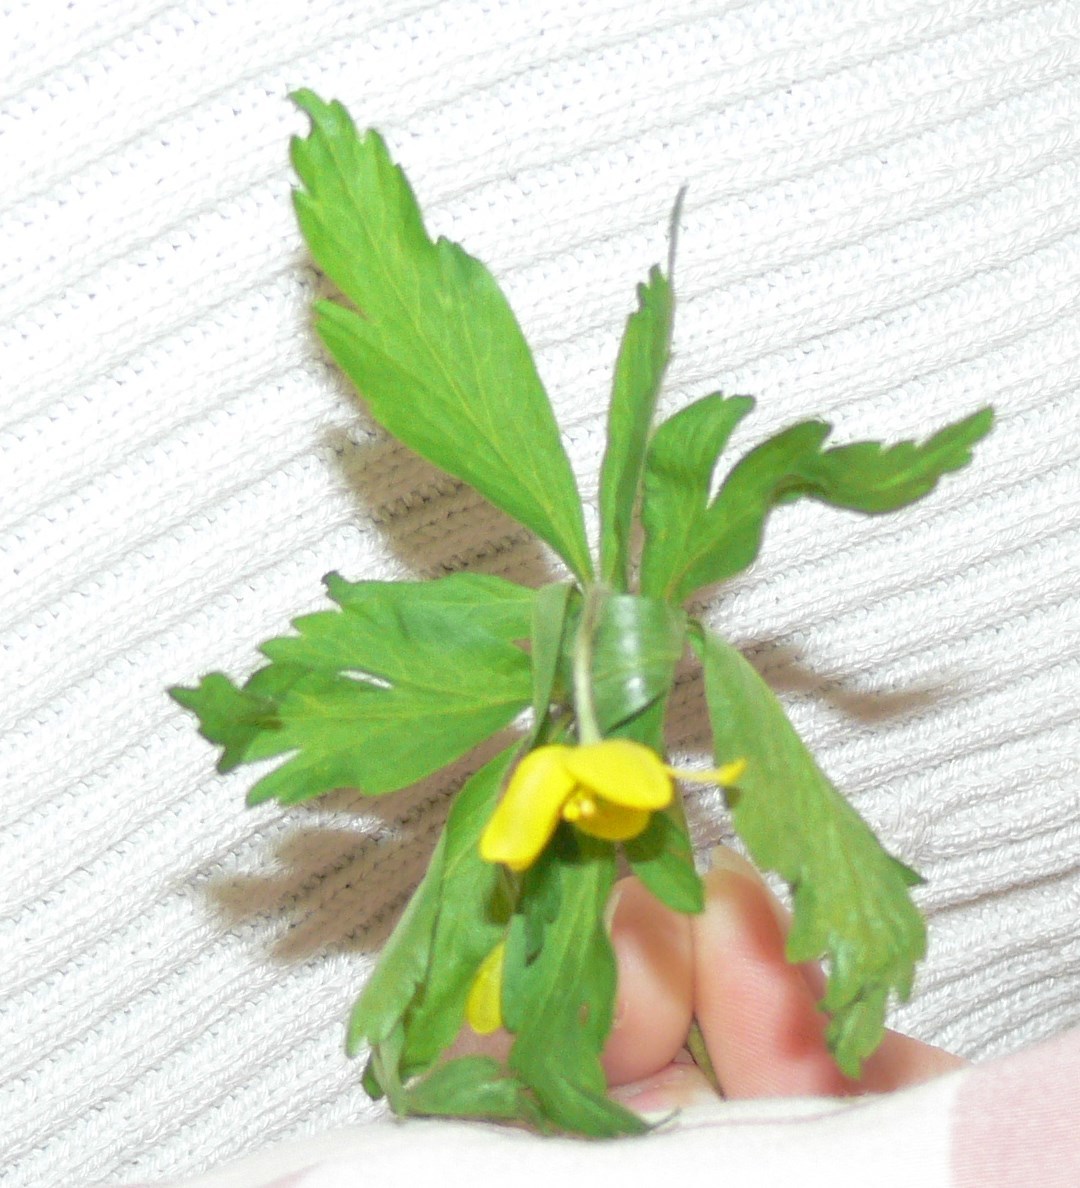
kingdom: Plantae
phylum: Tracheophyta
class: Magnoliopsida
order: Ranunculales
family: Ranunculaceae
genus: Anemone
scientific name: Anemone ranunculoides
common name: Yellow anemone
